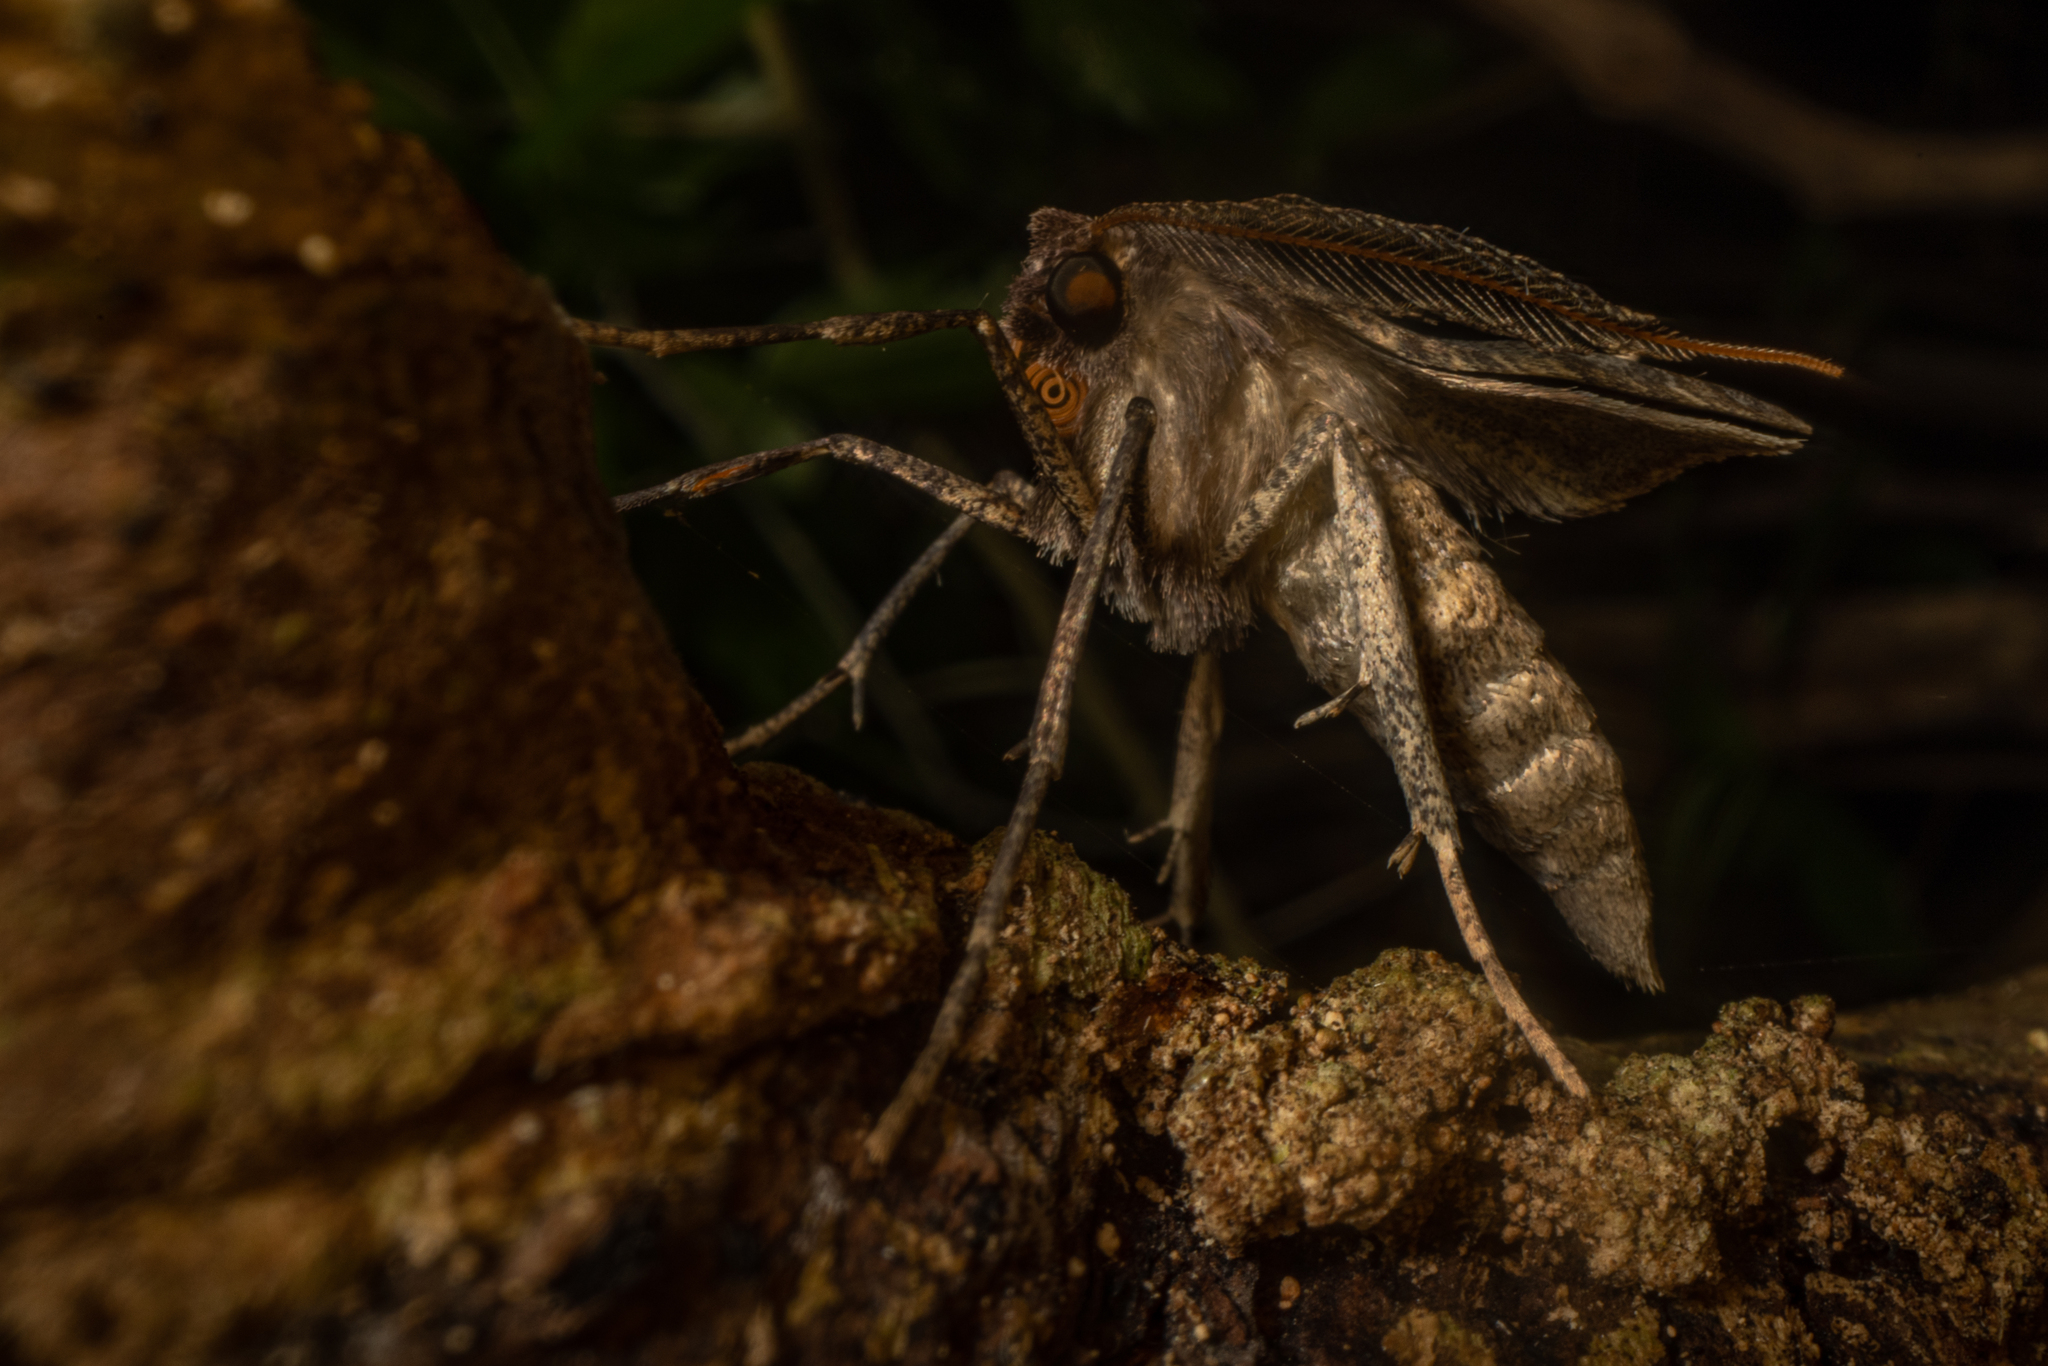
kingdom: Animalia
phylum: Arthropoda
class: Insecta
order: Lepidoptera
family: Geometridae
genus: Cleora
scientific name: Cleora scriptaria
